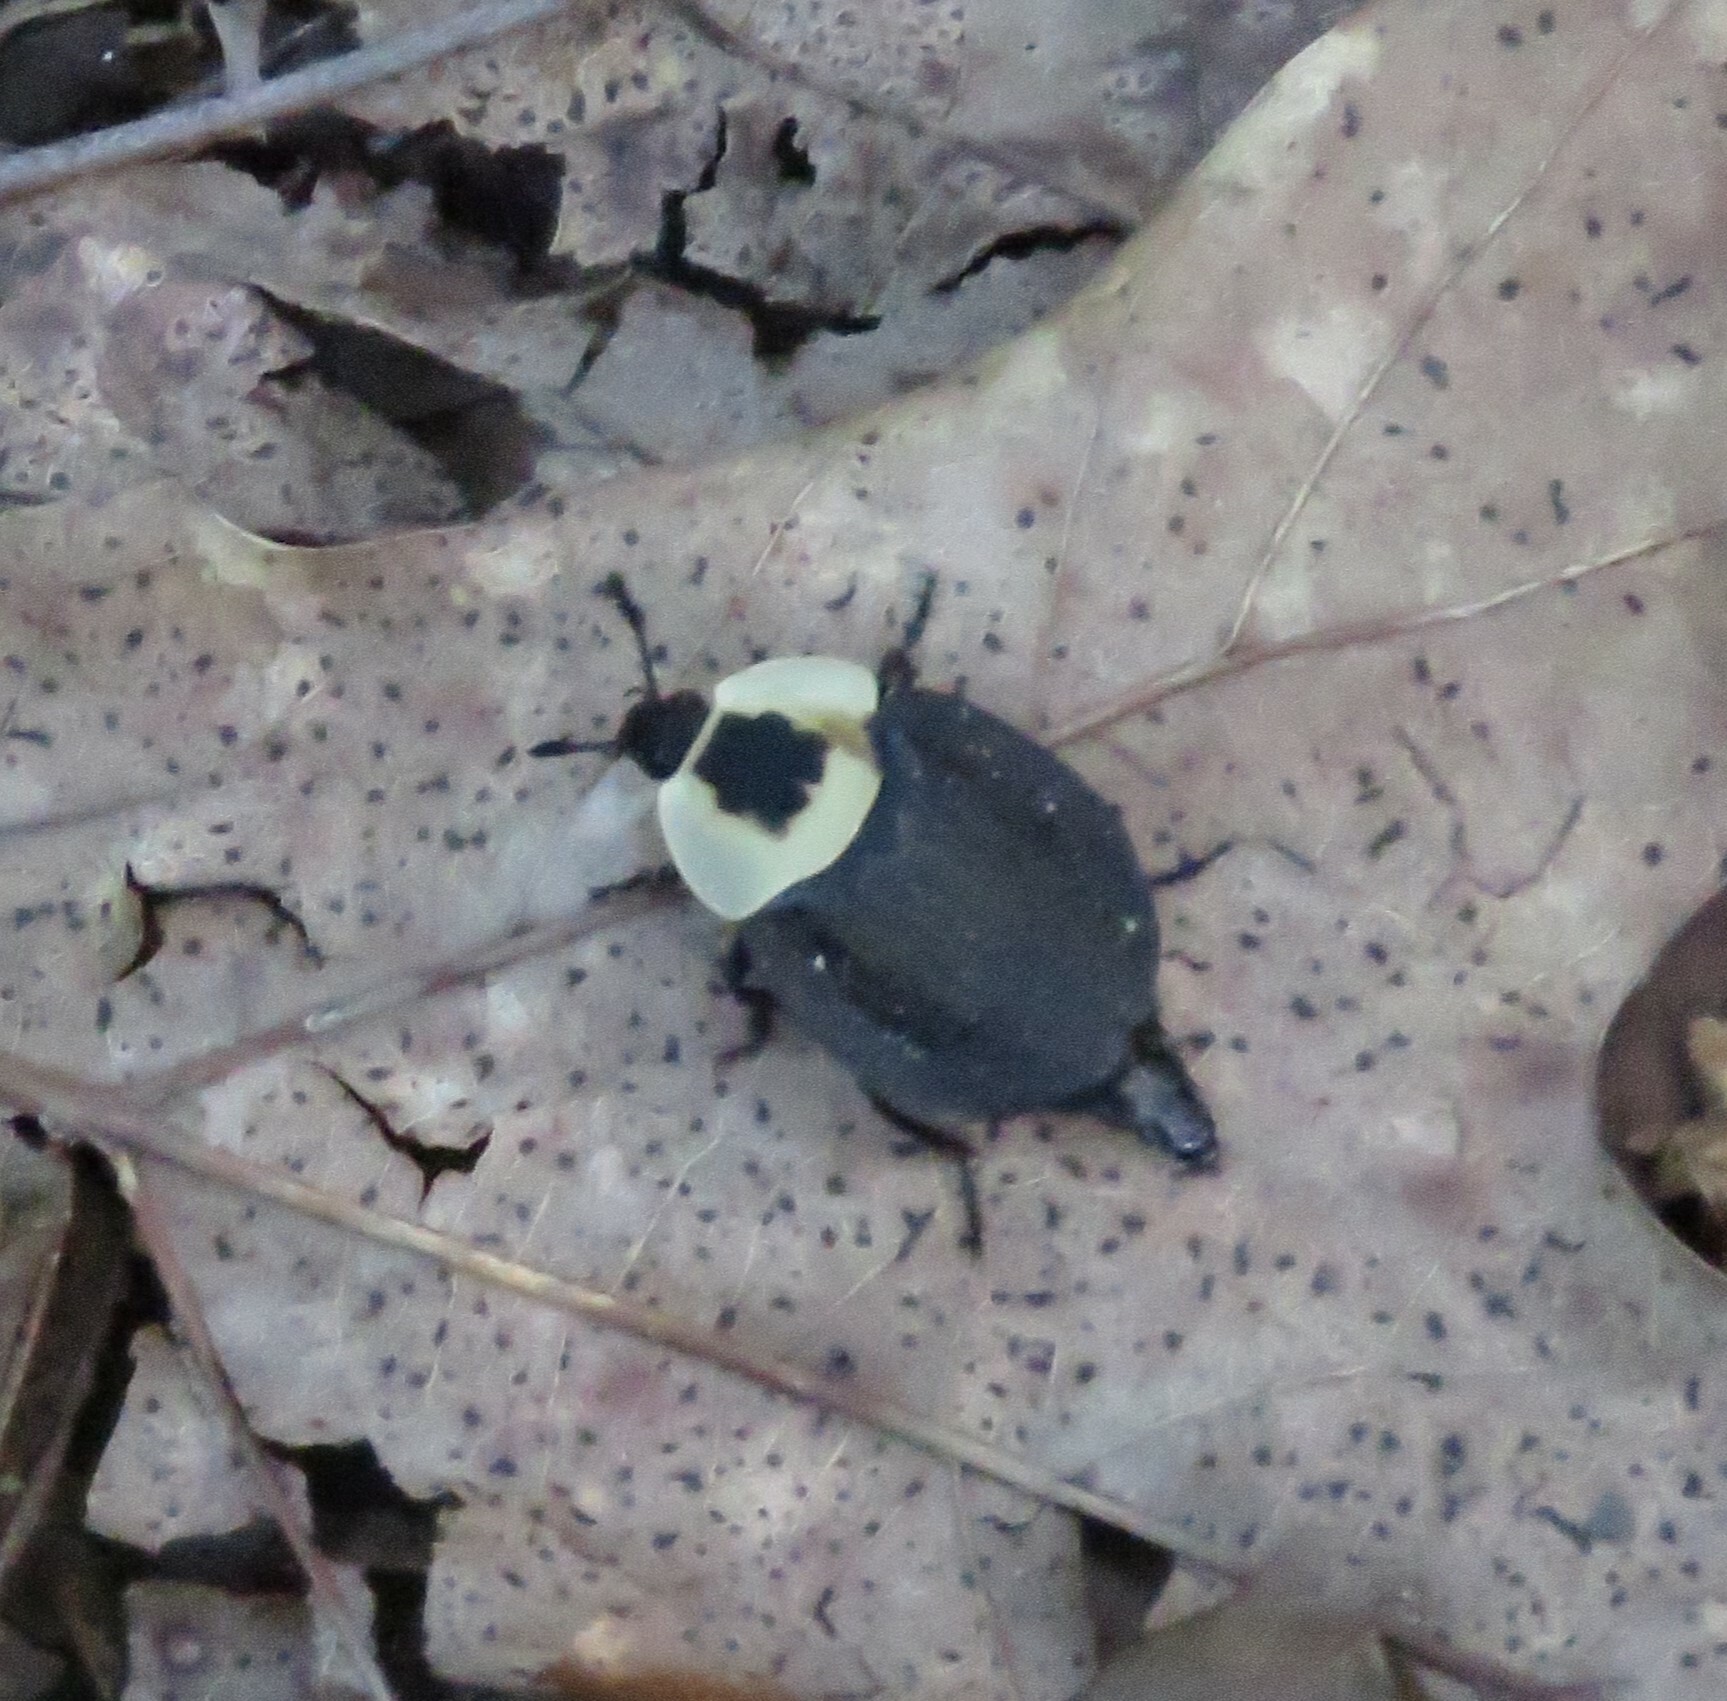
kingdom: Animalia
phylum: Arthropoda
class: Insecta
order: Coleoptera
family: Staphylinidae
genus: Necrophila
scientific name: Necrophila americana
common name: American carrion beetle
